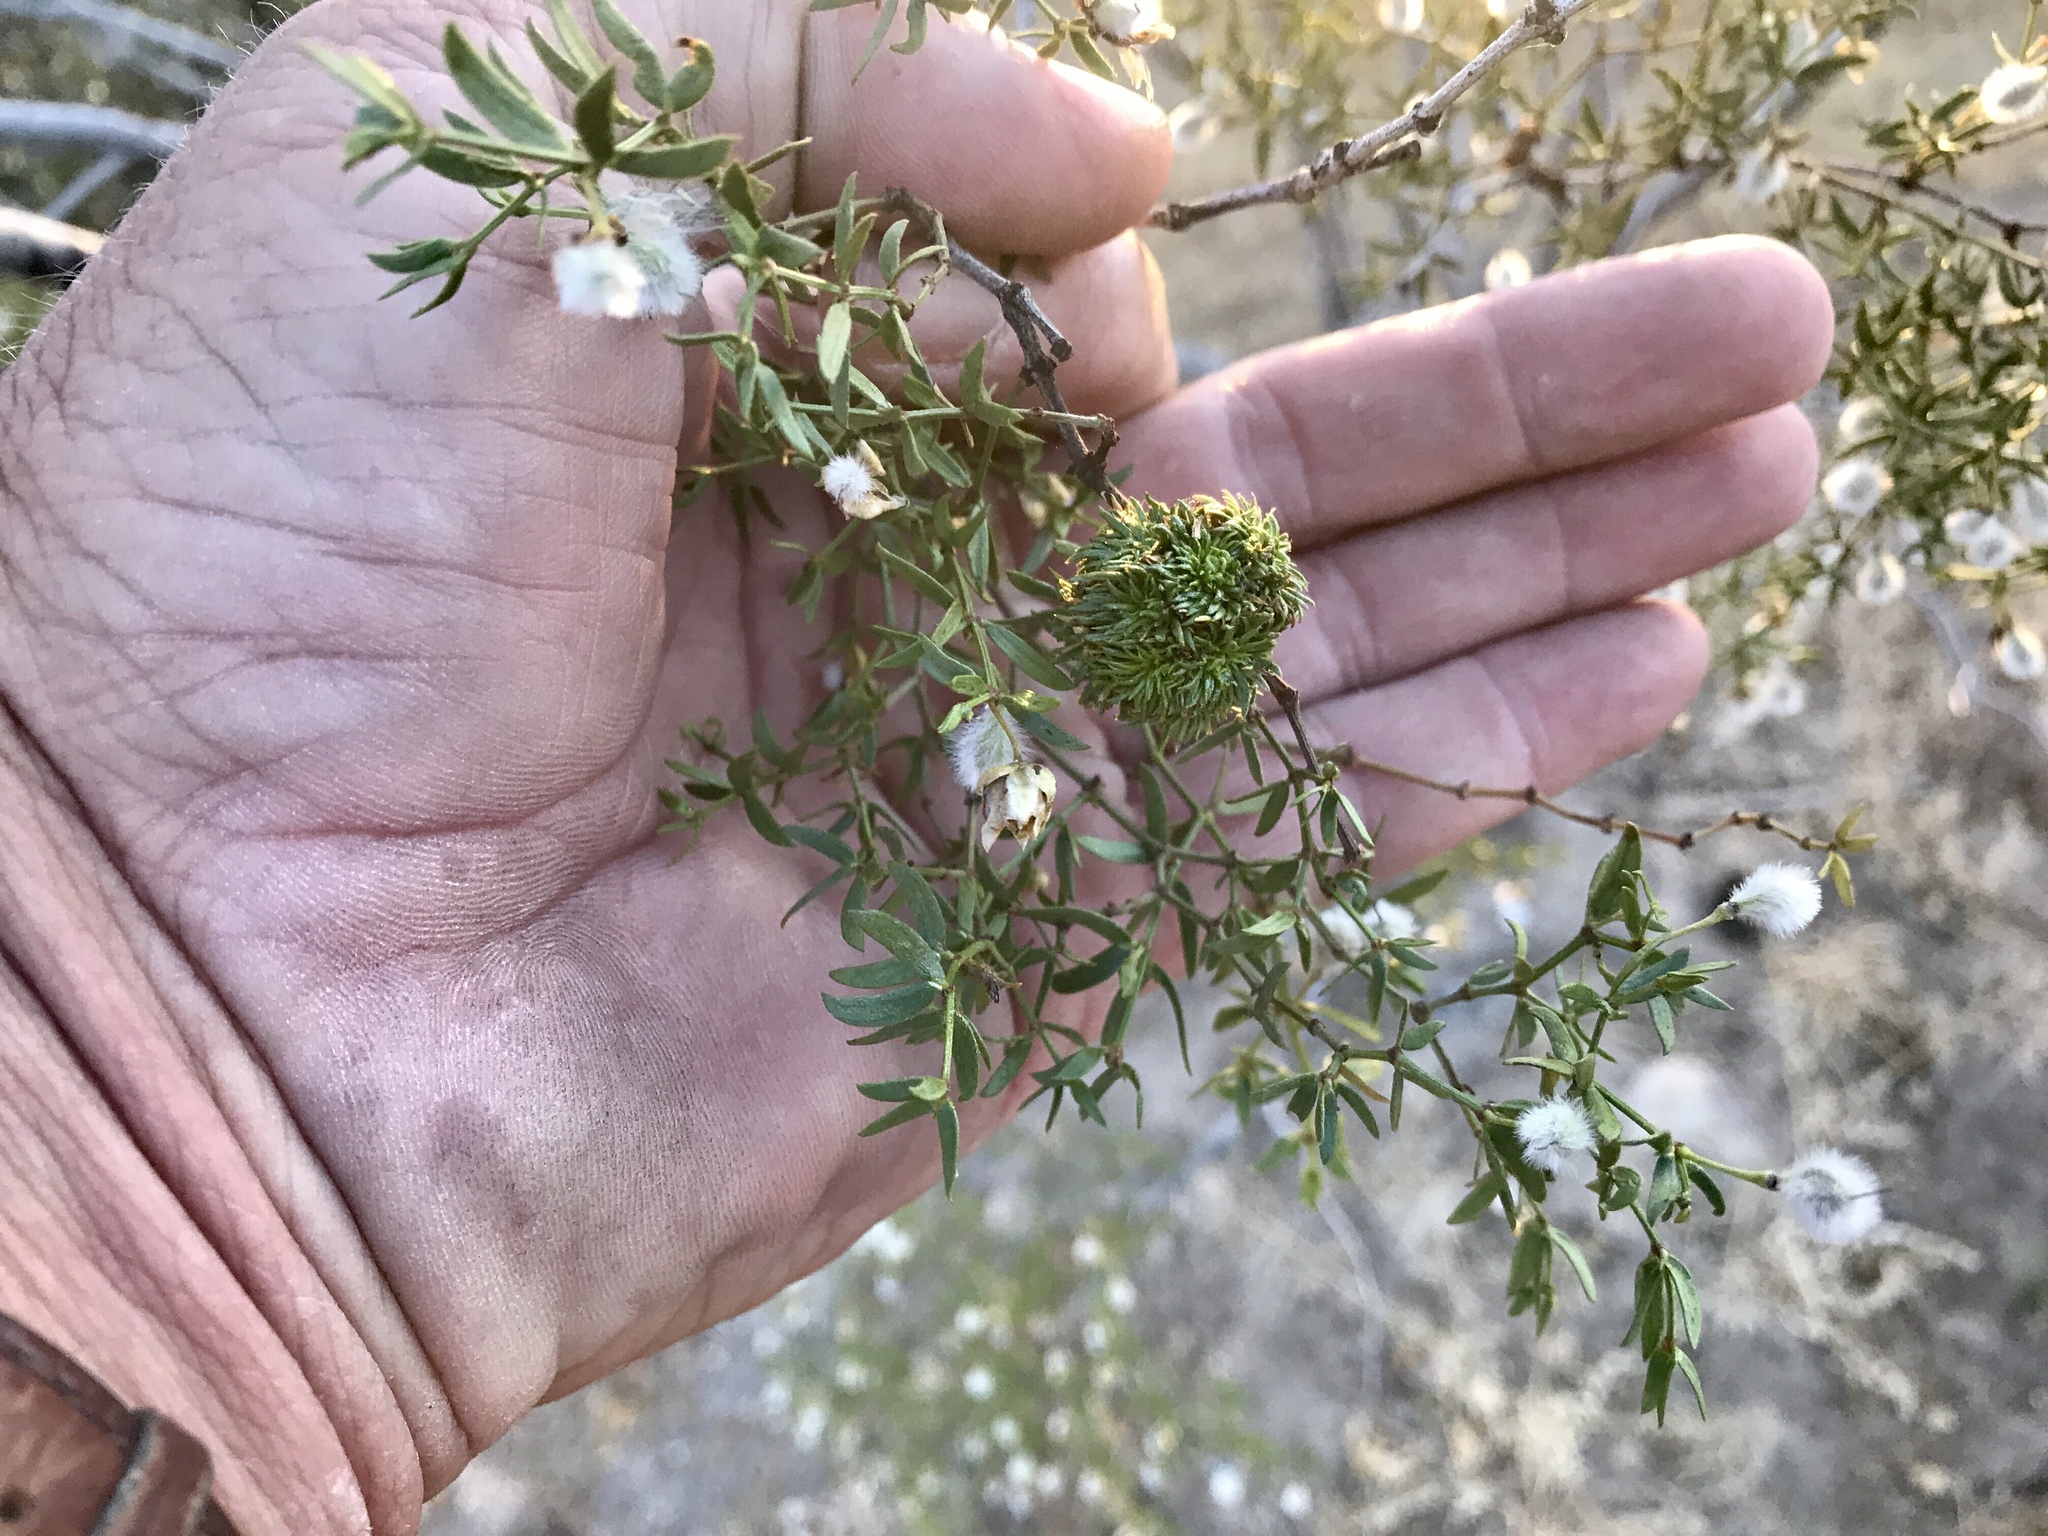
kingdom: Plantae
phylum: Tracheophyta
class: Magnoliopsida
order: Zygophyllales
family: Zygophyllaceae
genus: Larrea
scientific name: Larrea tridentata
